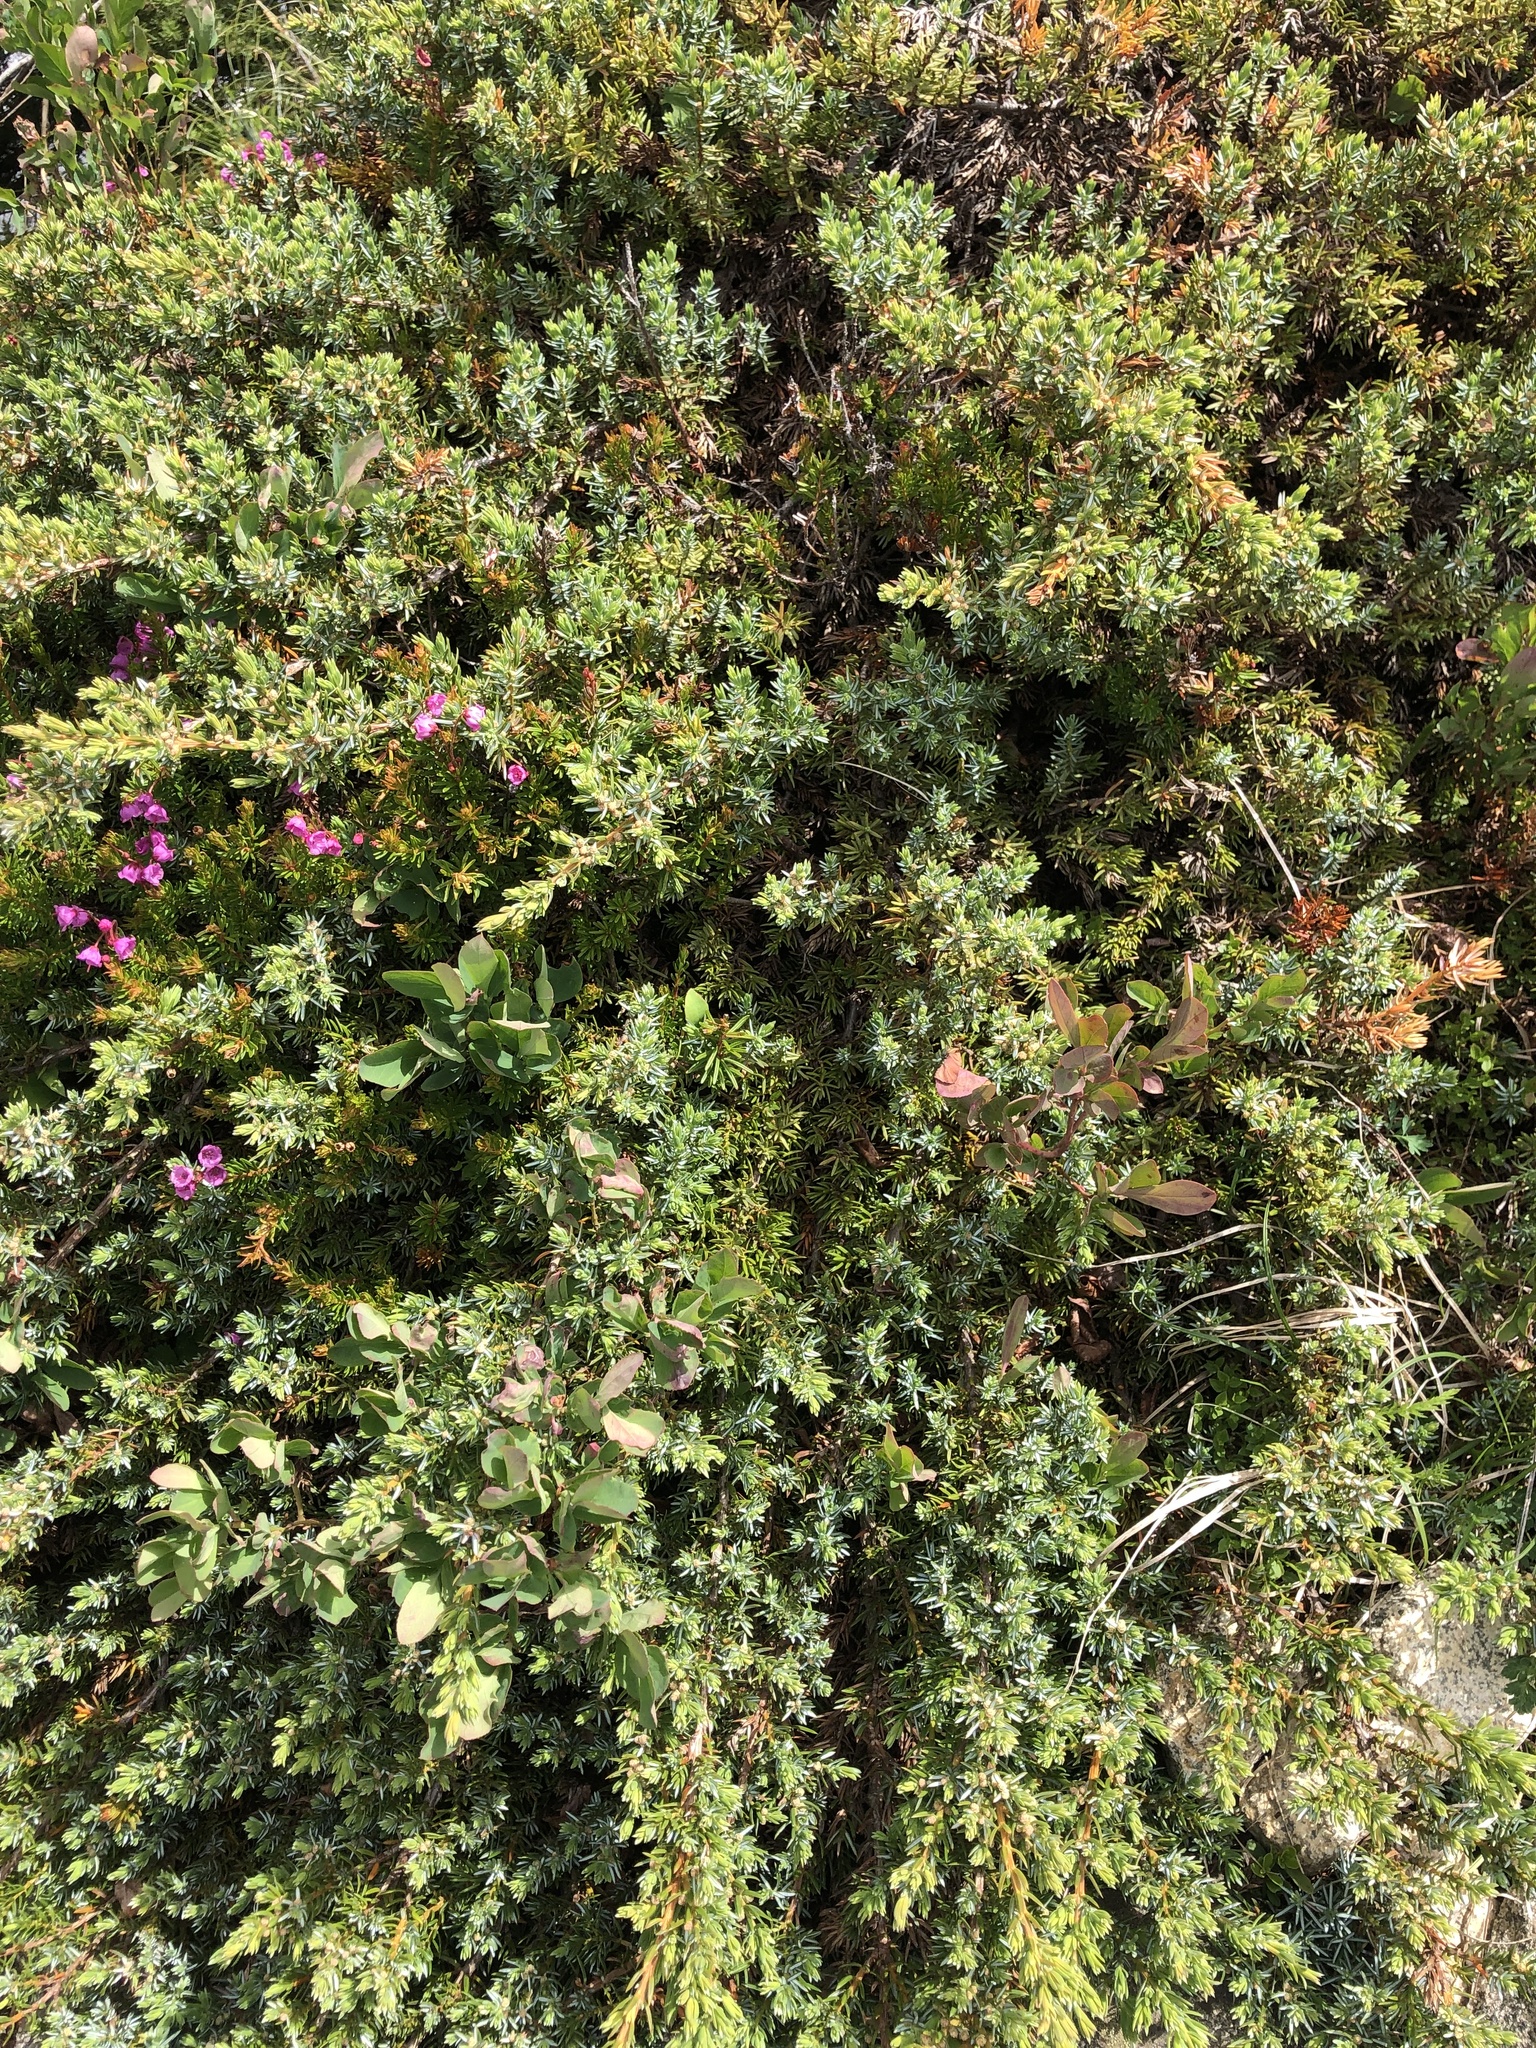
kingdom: Plantae
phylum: Tracheophyta
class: Pinopsida
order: Pinales
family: Cupressaceae
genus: Juniperus
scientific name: Juniperus communis
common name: Common juniper
